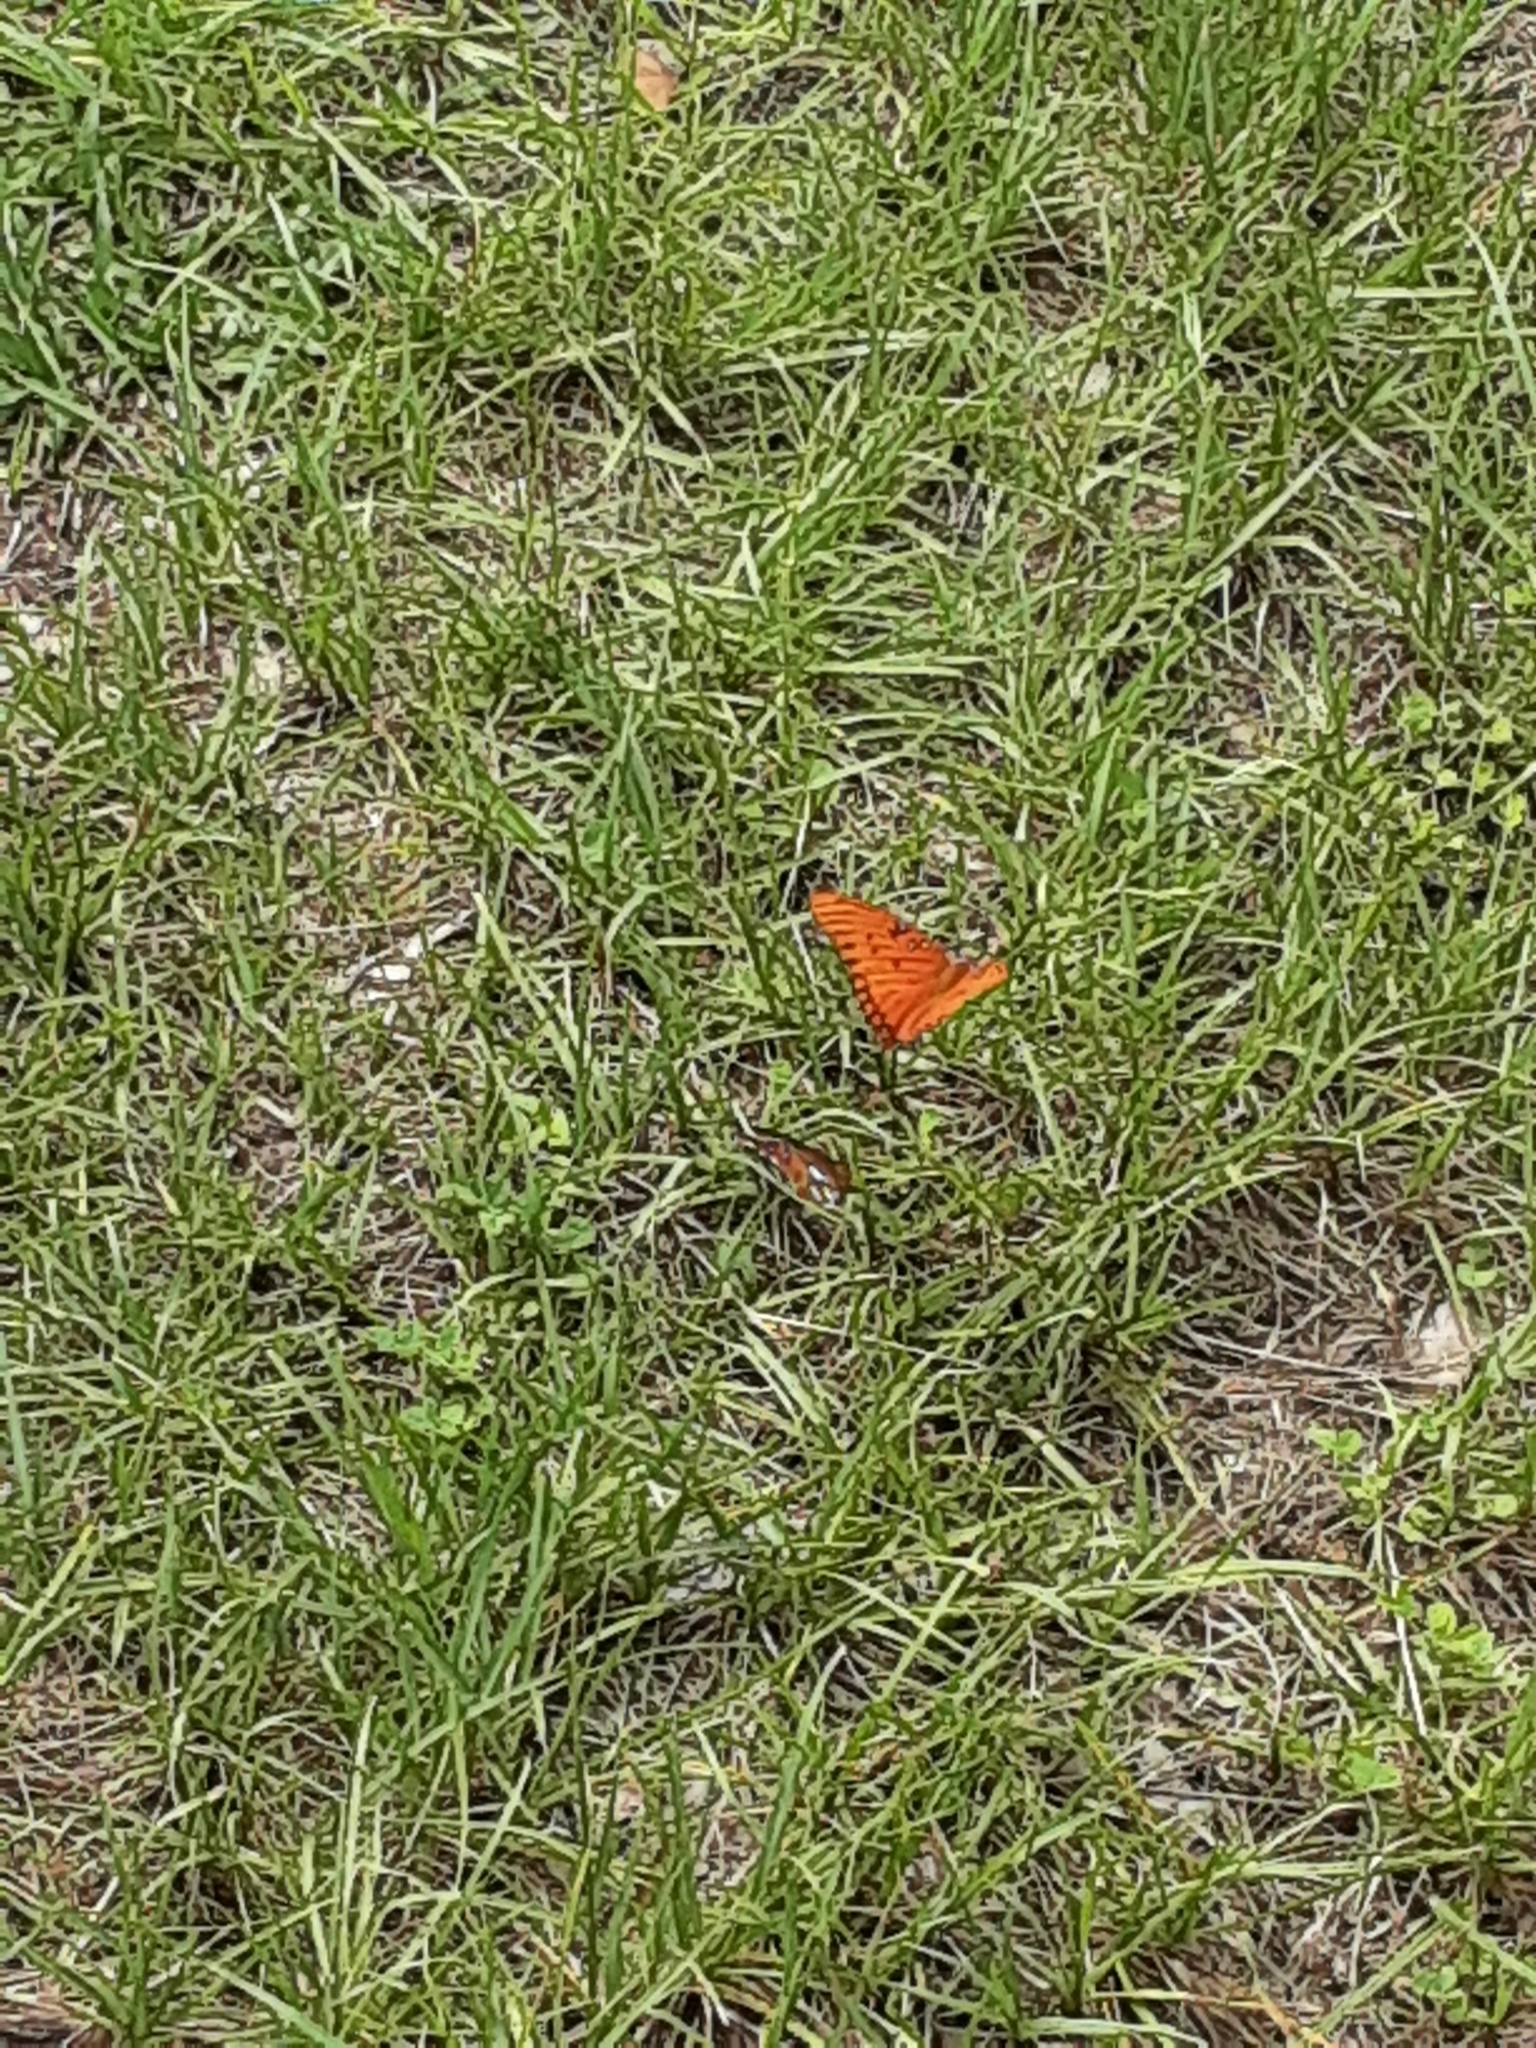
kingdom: Animalia
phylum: Arthropoda
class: Insecta
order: Lepidoptera
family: Nymphalidae
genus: Dione
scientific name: Dione vanillae
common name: Gulf fritillary
